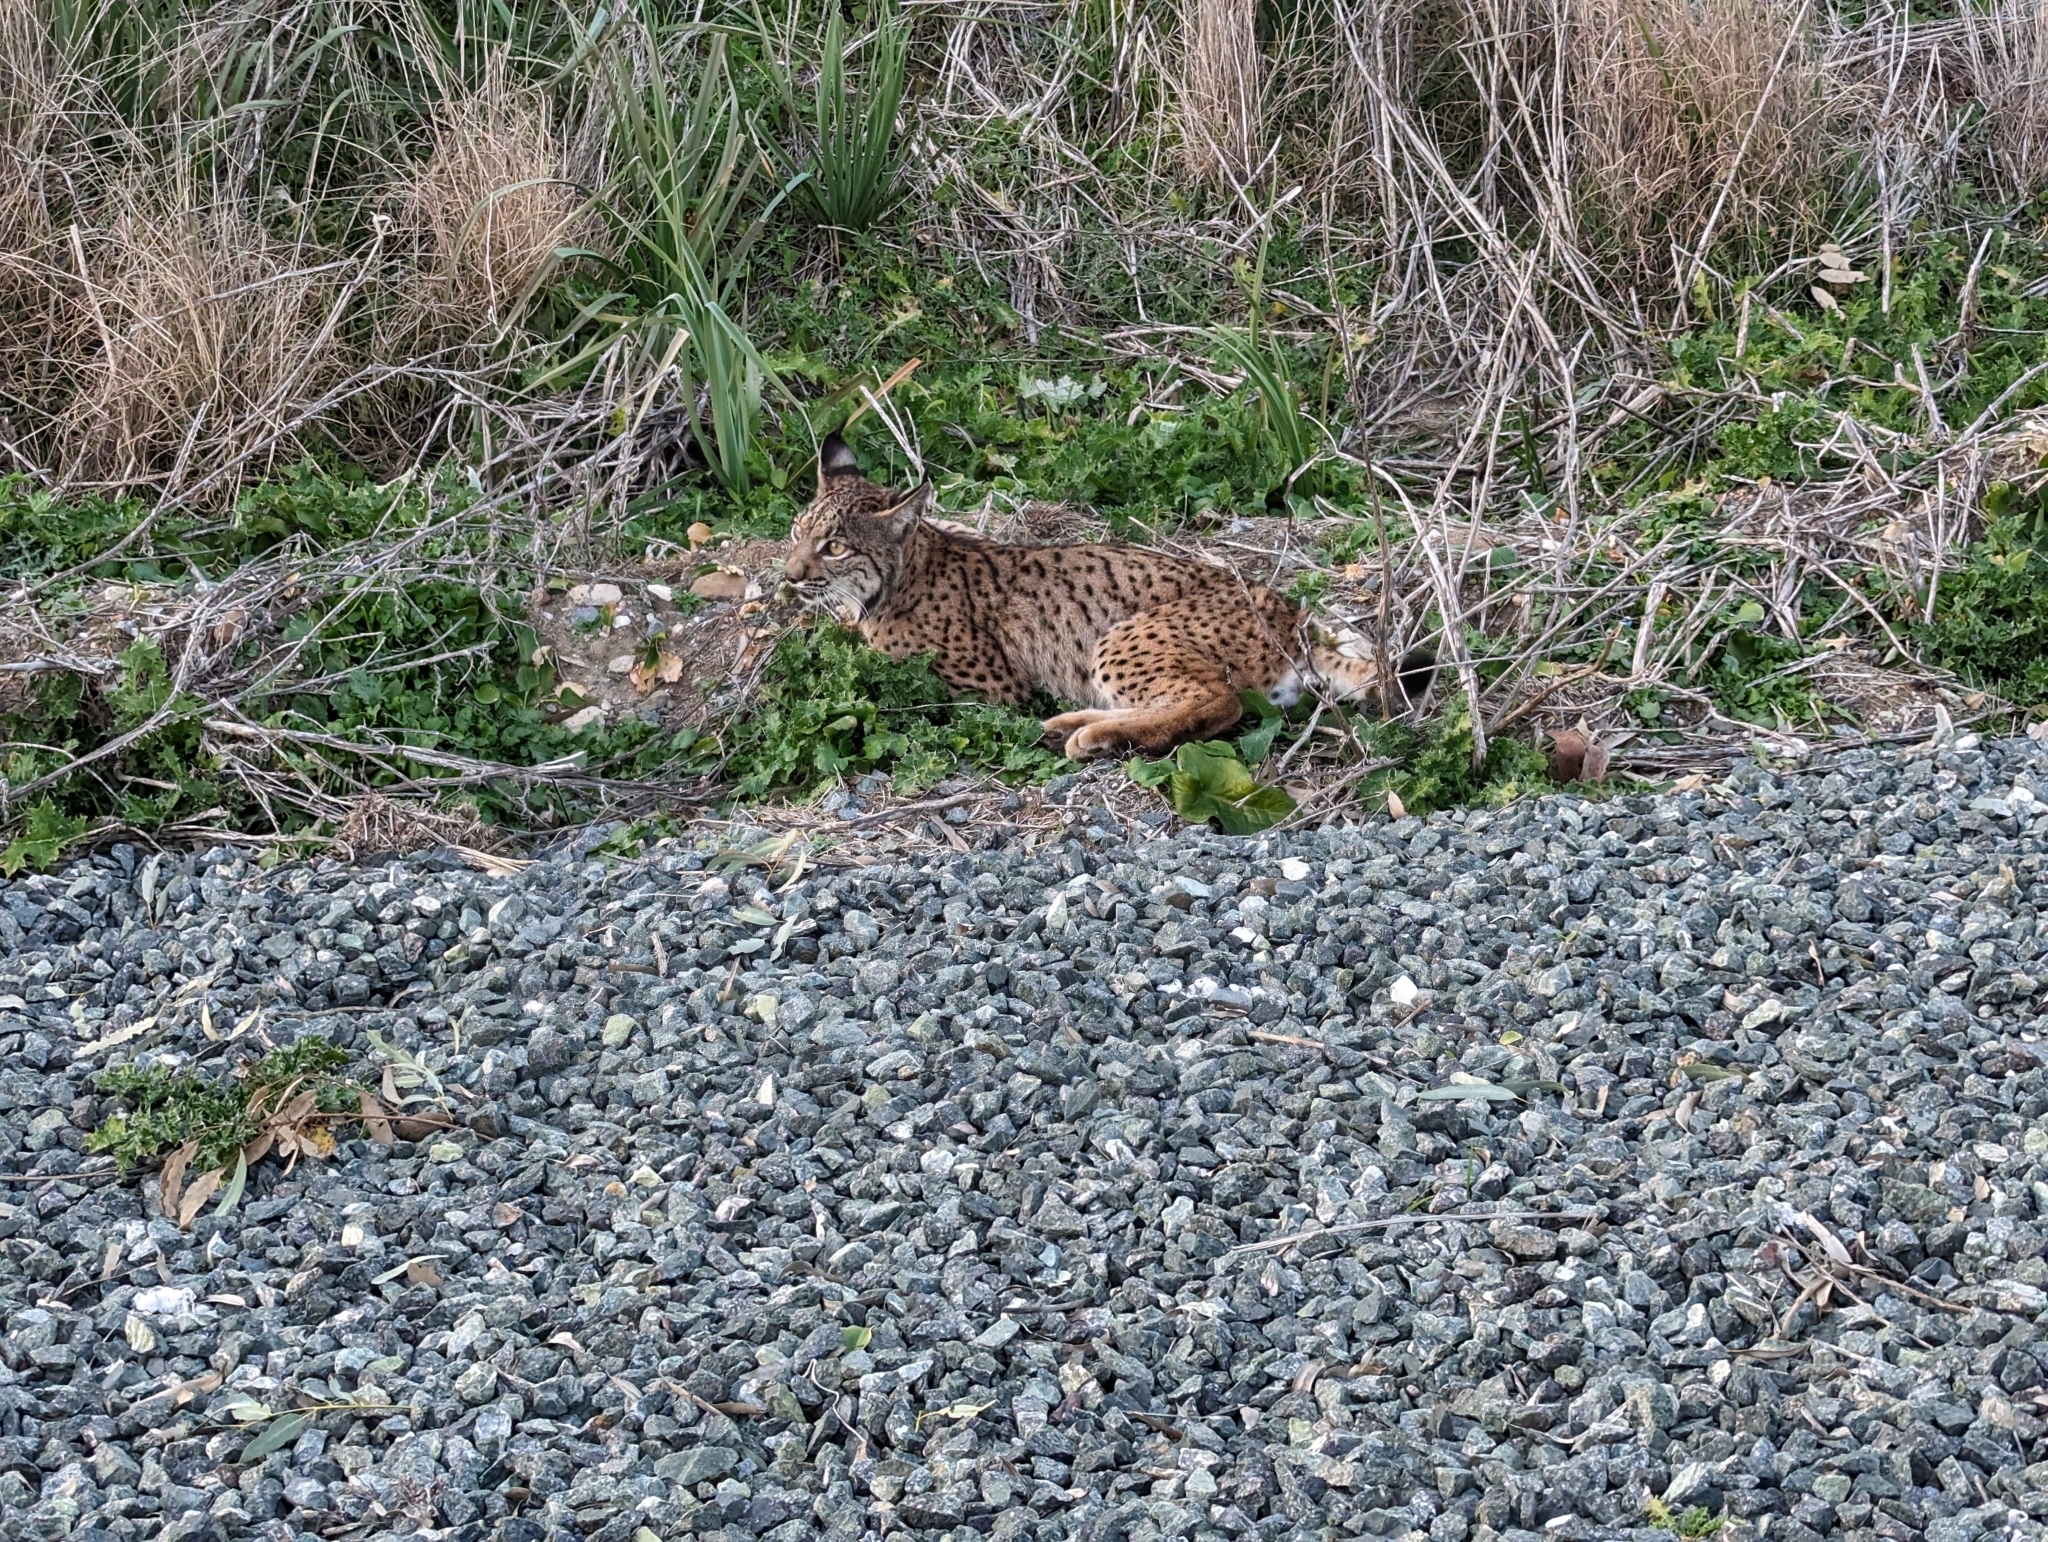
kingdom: Animalia
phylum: Chordata
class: Mammalia
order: Carnivora
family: Felidae
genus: Lynx
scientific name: Lynx pardinus
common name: Spanish lynx
